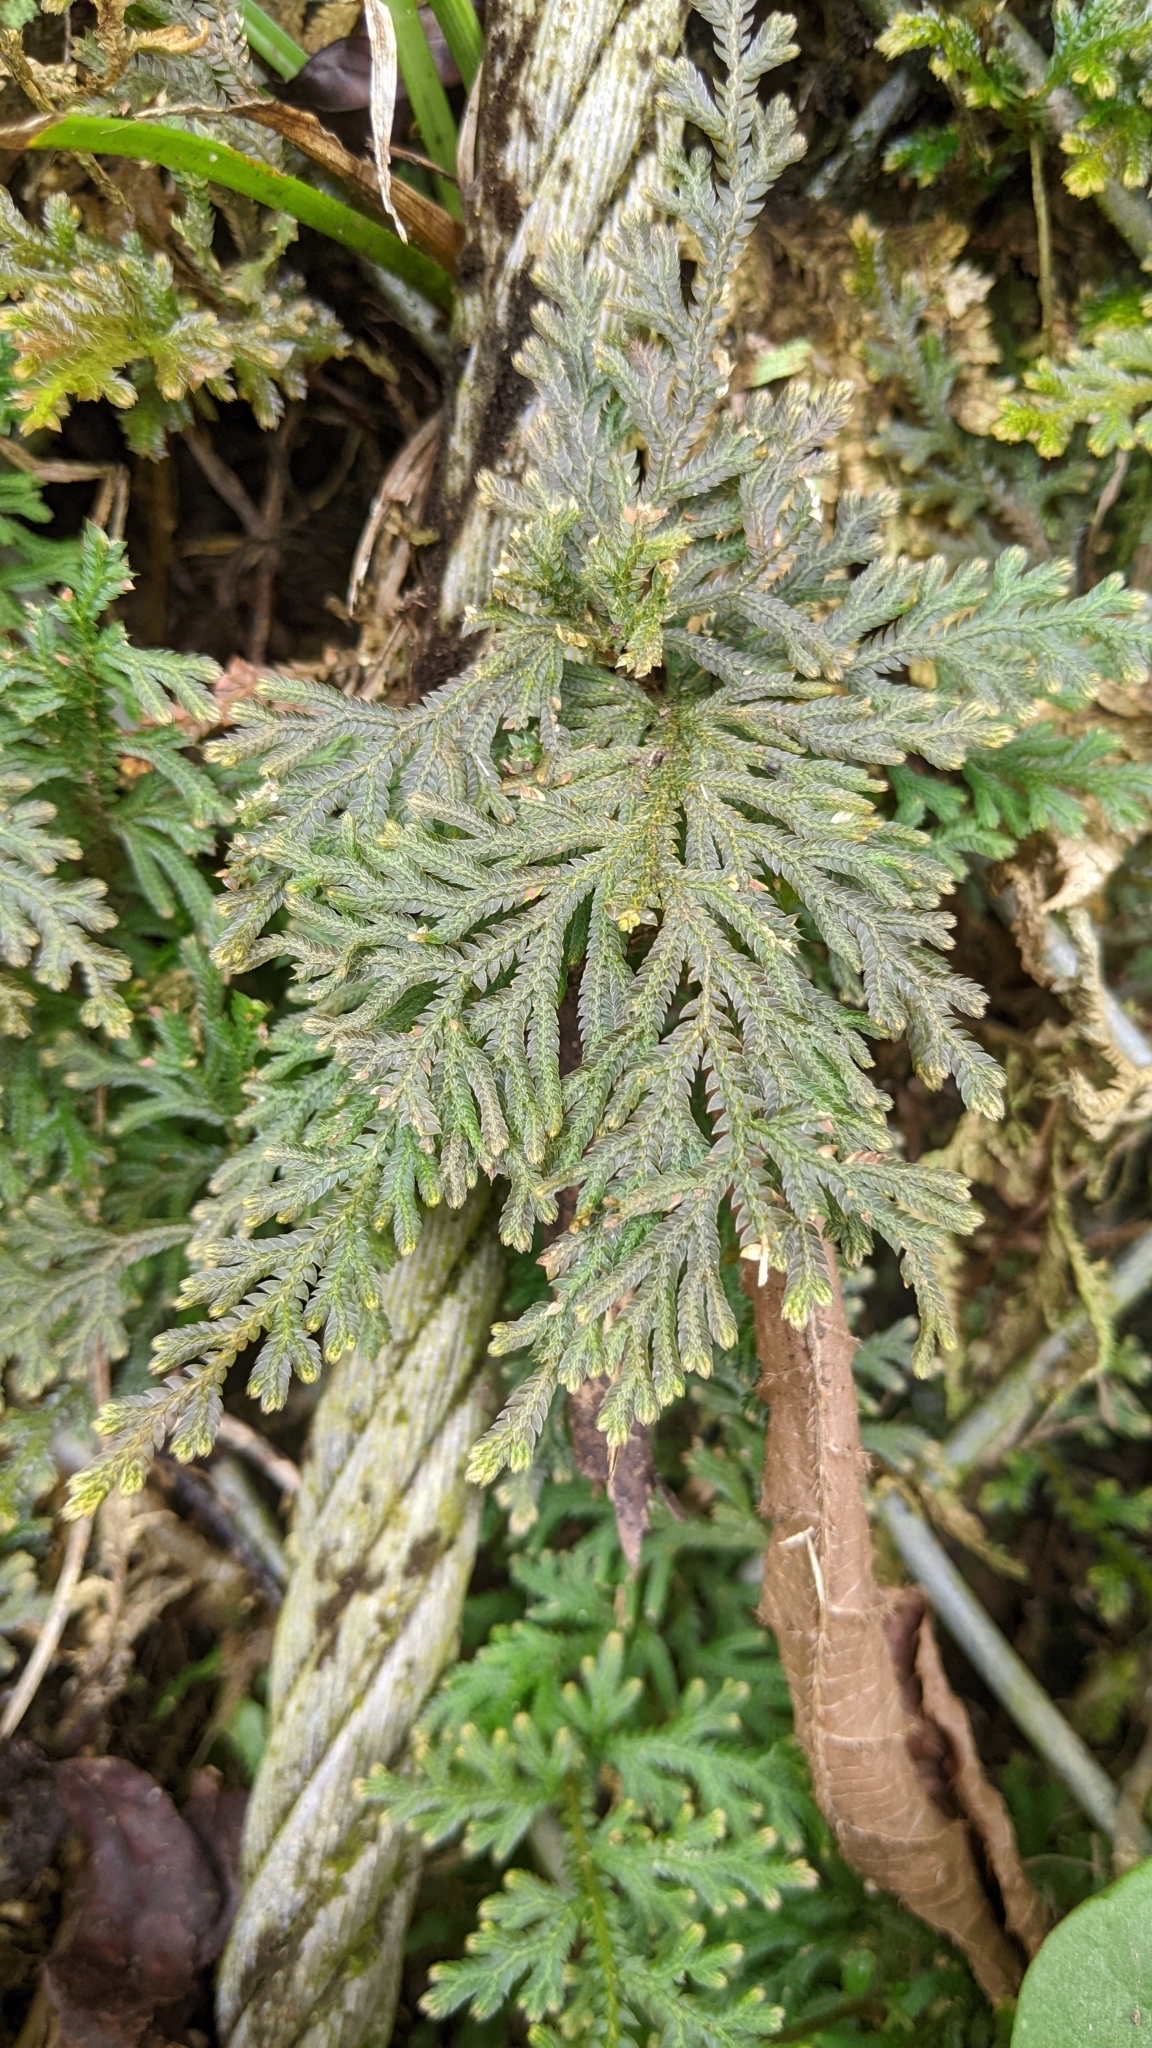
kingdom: Plantae
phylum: Tracheophyta
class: Lycopodiopsida
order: Selaginellales
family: Selaginellaceae
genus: Selaginella
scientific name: Selaginella moellendorffii
